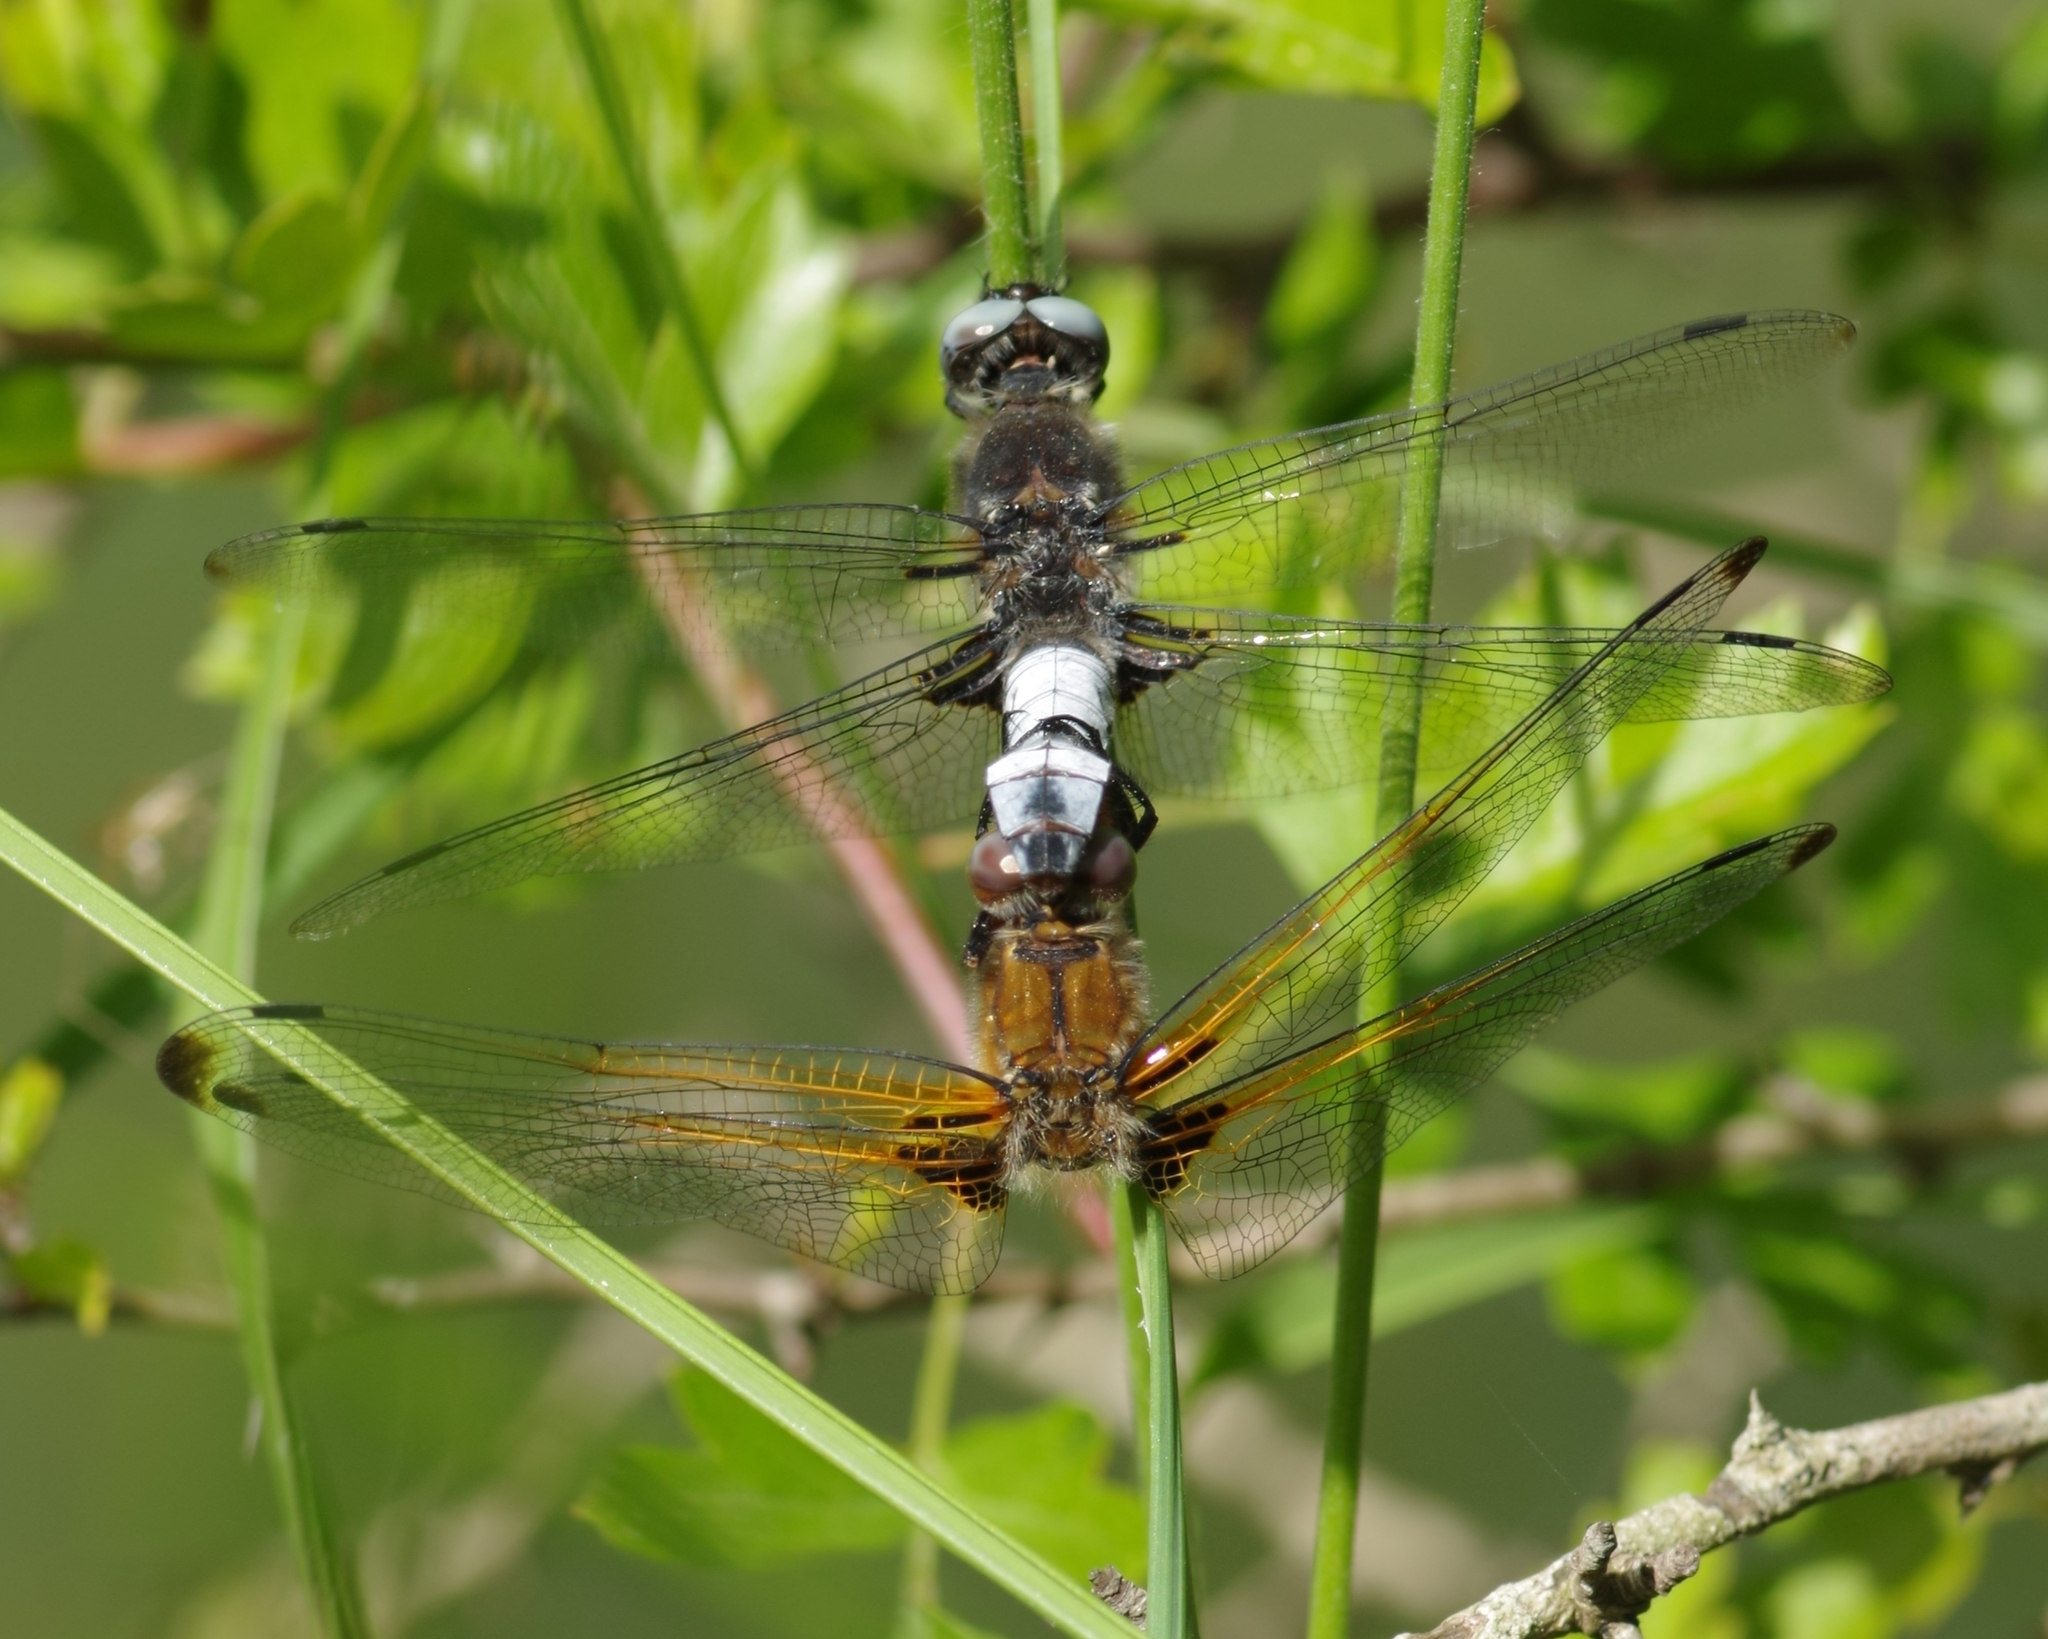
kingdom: Animalia
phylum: Arthropoda
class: Insecta
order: Odonata
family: Libellulidae
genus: Libellula
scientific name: Libellula fulva
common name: Blue chaser
